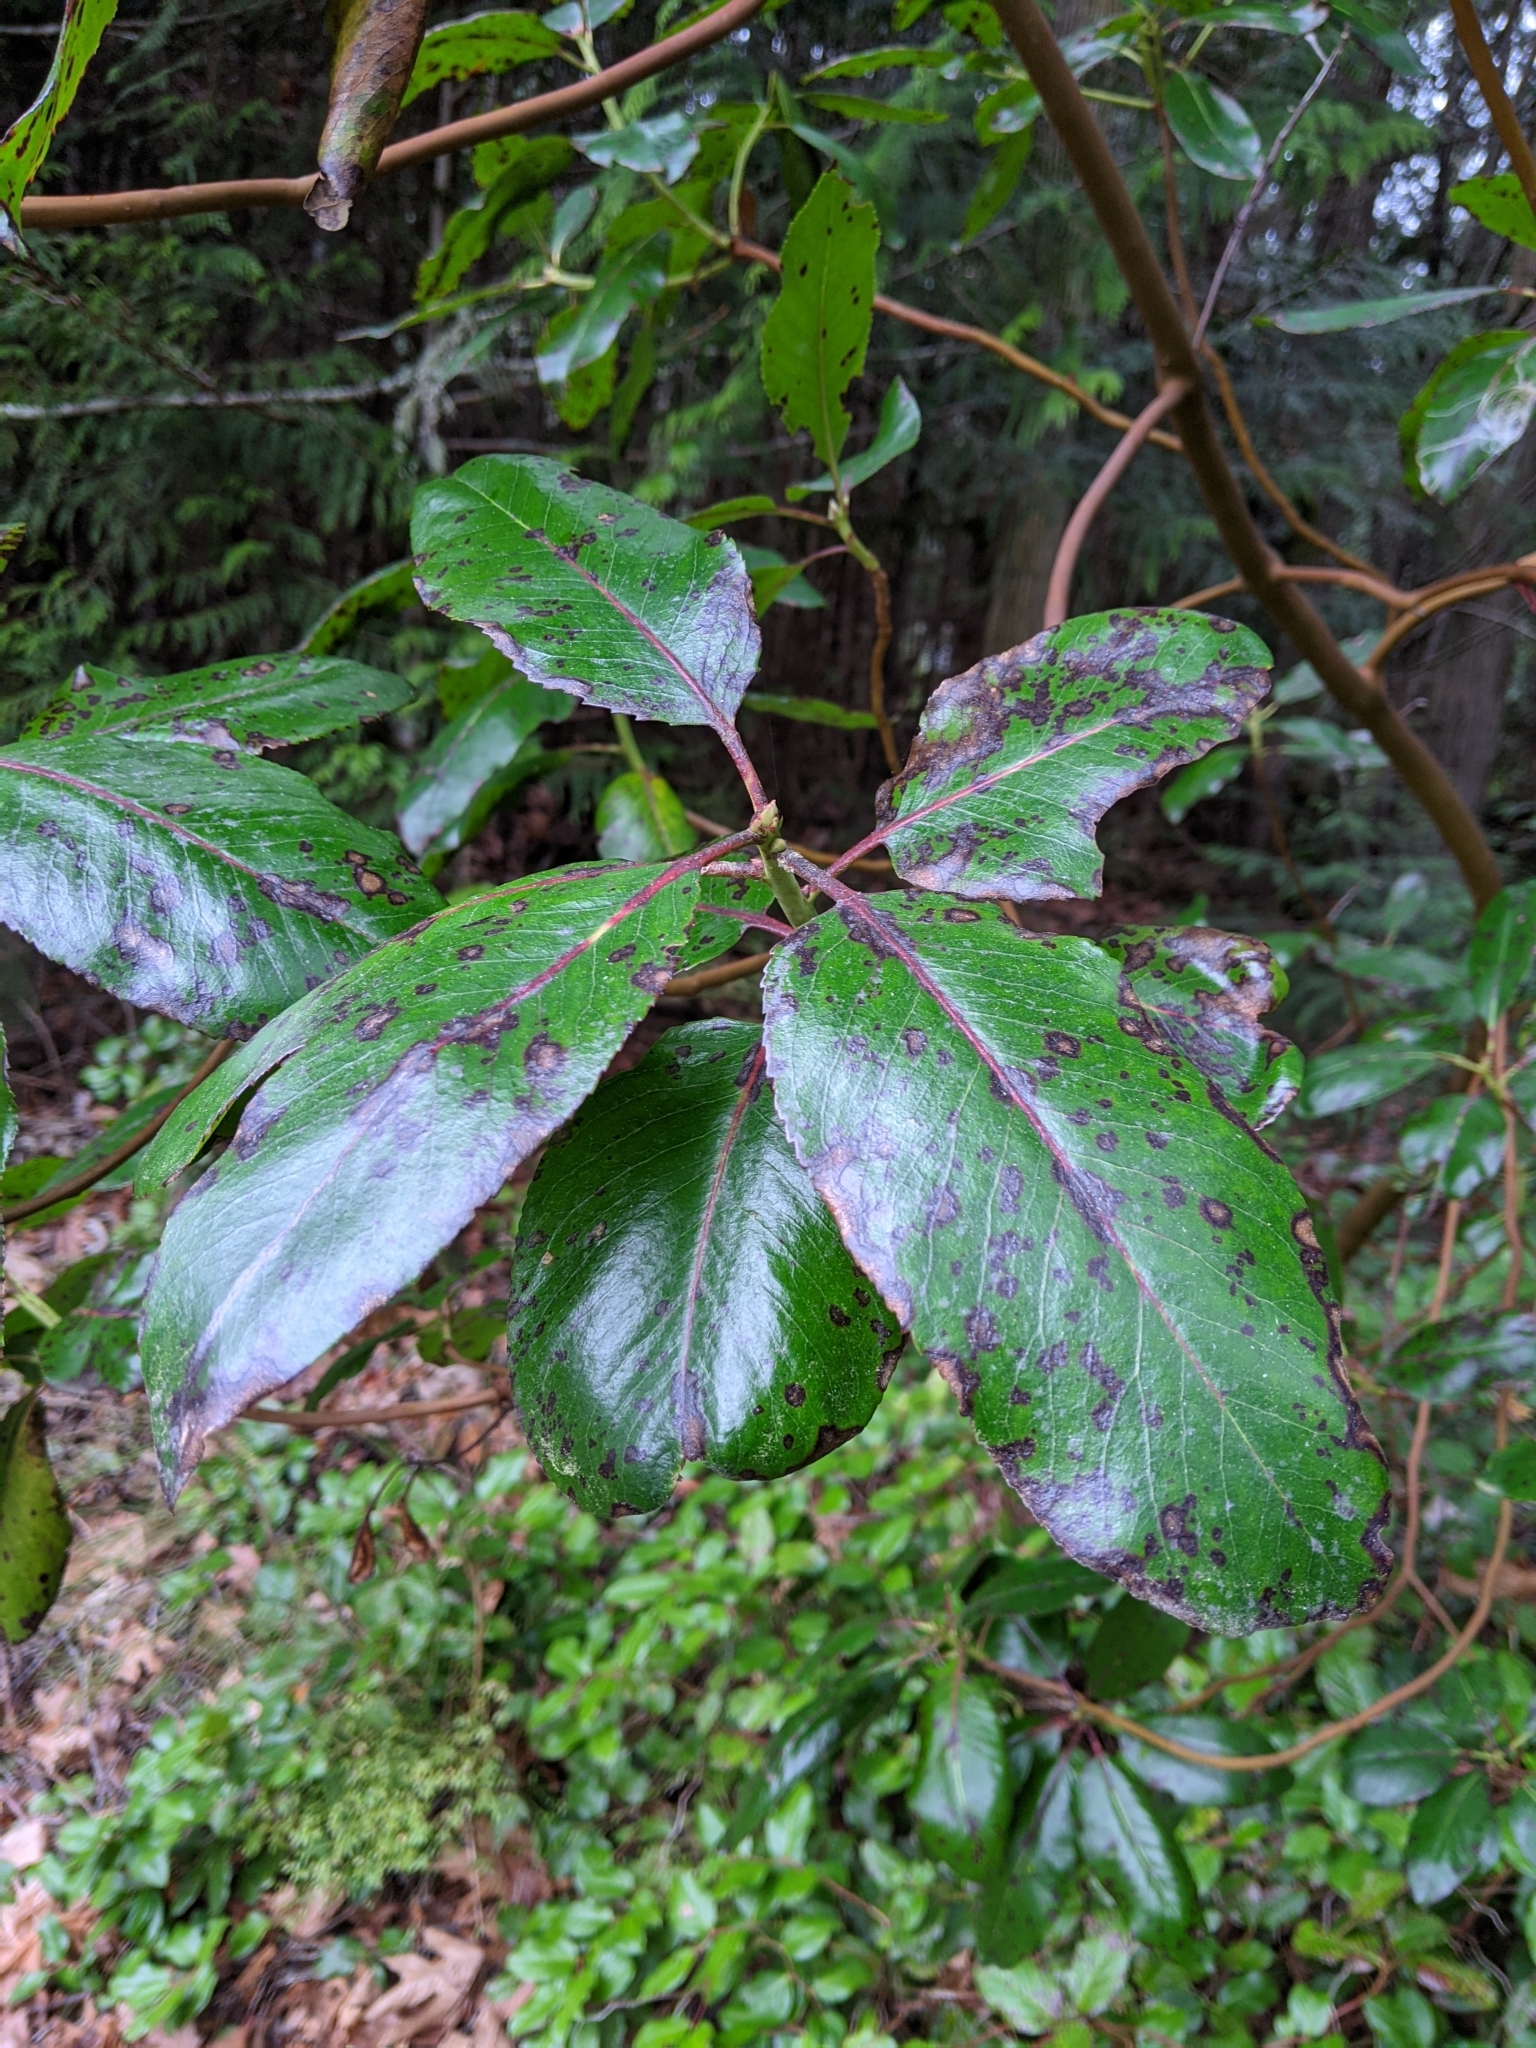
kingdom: Plantae
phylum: Tracheophyta
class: Magnoliopsida
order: Ericales
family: Ericaceae
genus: Arbutus
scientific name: Arbutus menziesii
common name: Pacific madrone
